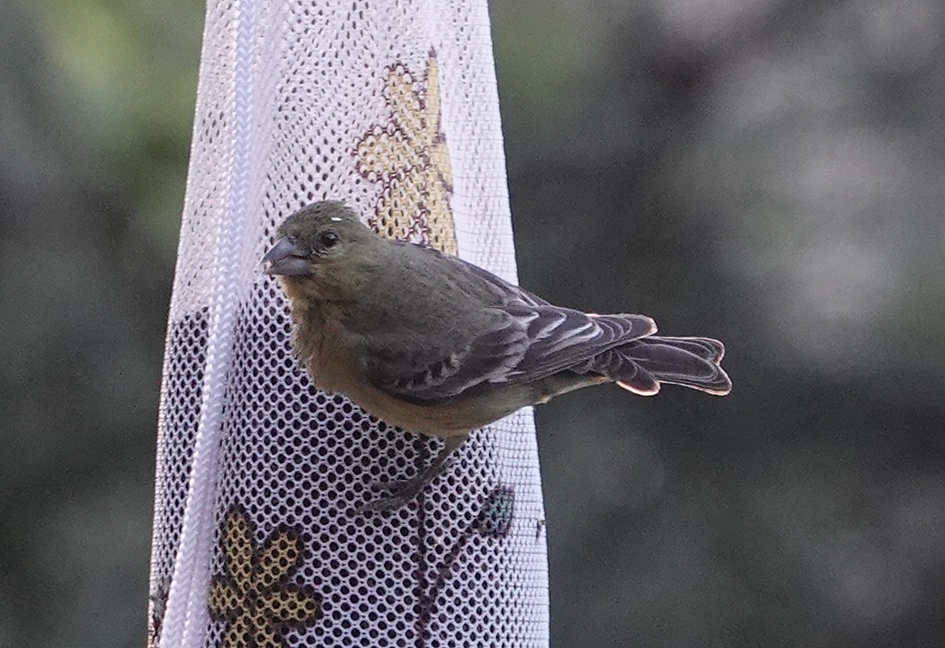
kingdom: Animalia
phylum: Chordata
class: Aves
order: Passeriformes
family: Fringillidae
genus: Spinus
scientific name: Spinus psaltria
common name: Lesser goldfinch
